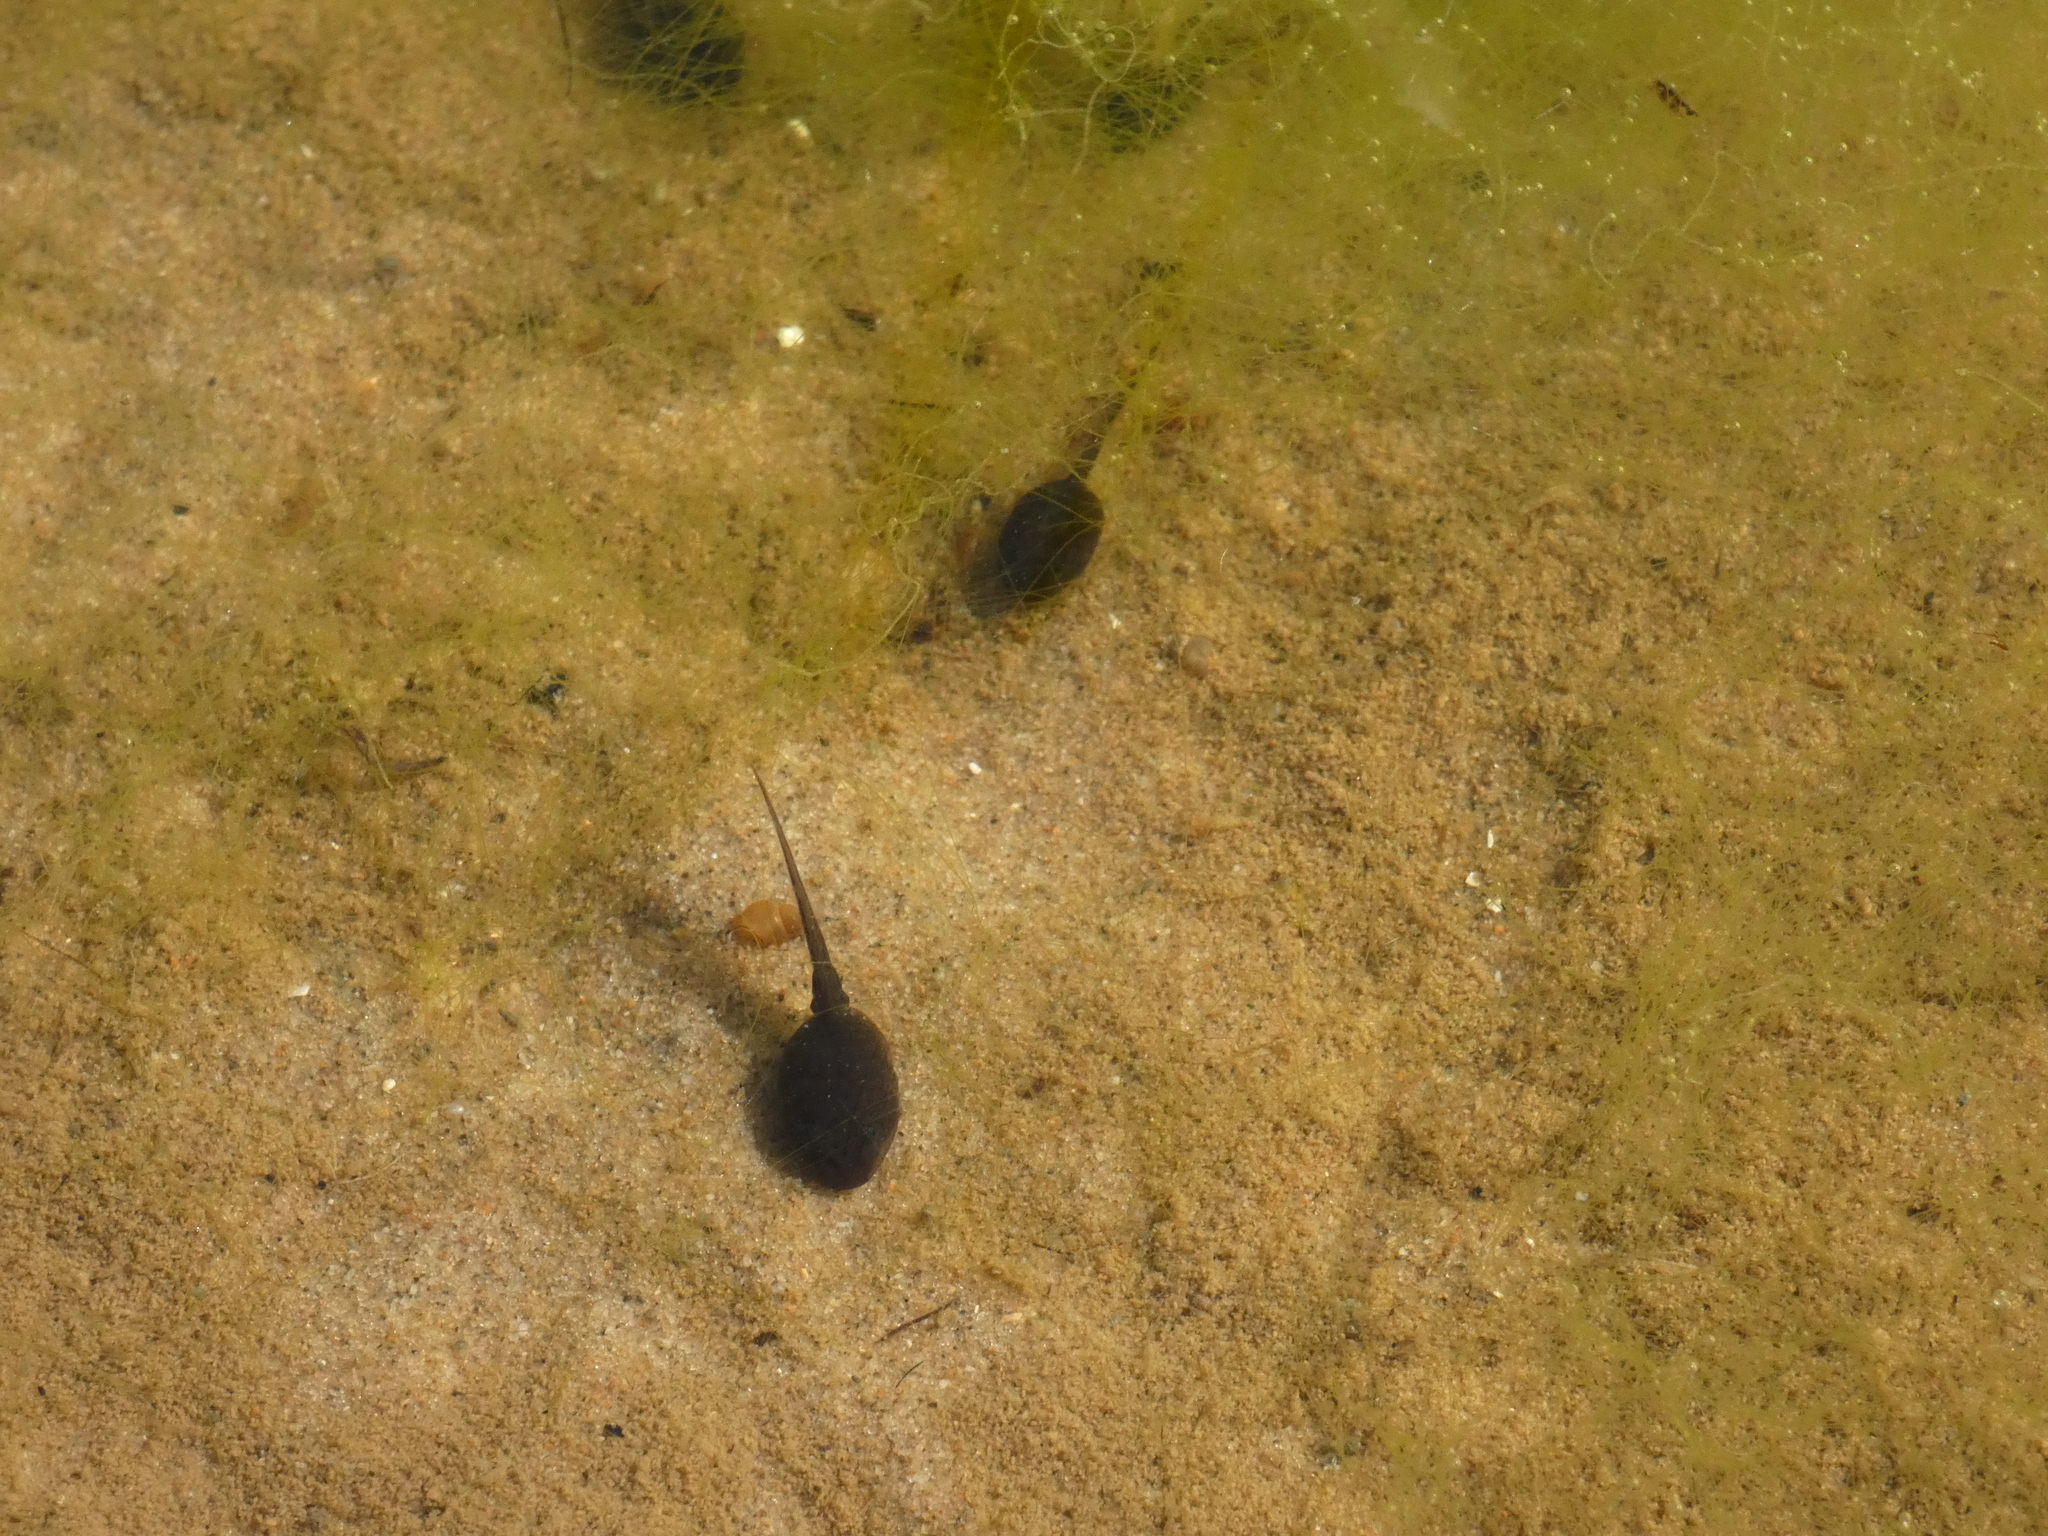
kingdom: Animalia
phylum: Chordata
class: Amphibia
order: Anura
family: Bufonidae
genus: Epidalea
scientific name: Epidalea calamita
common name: Natterjack toad
